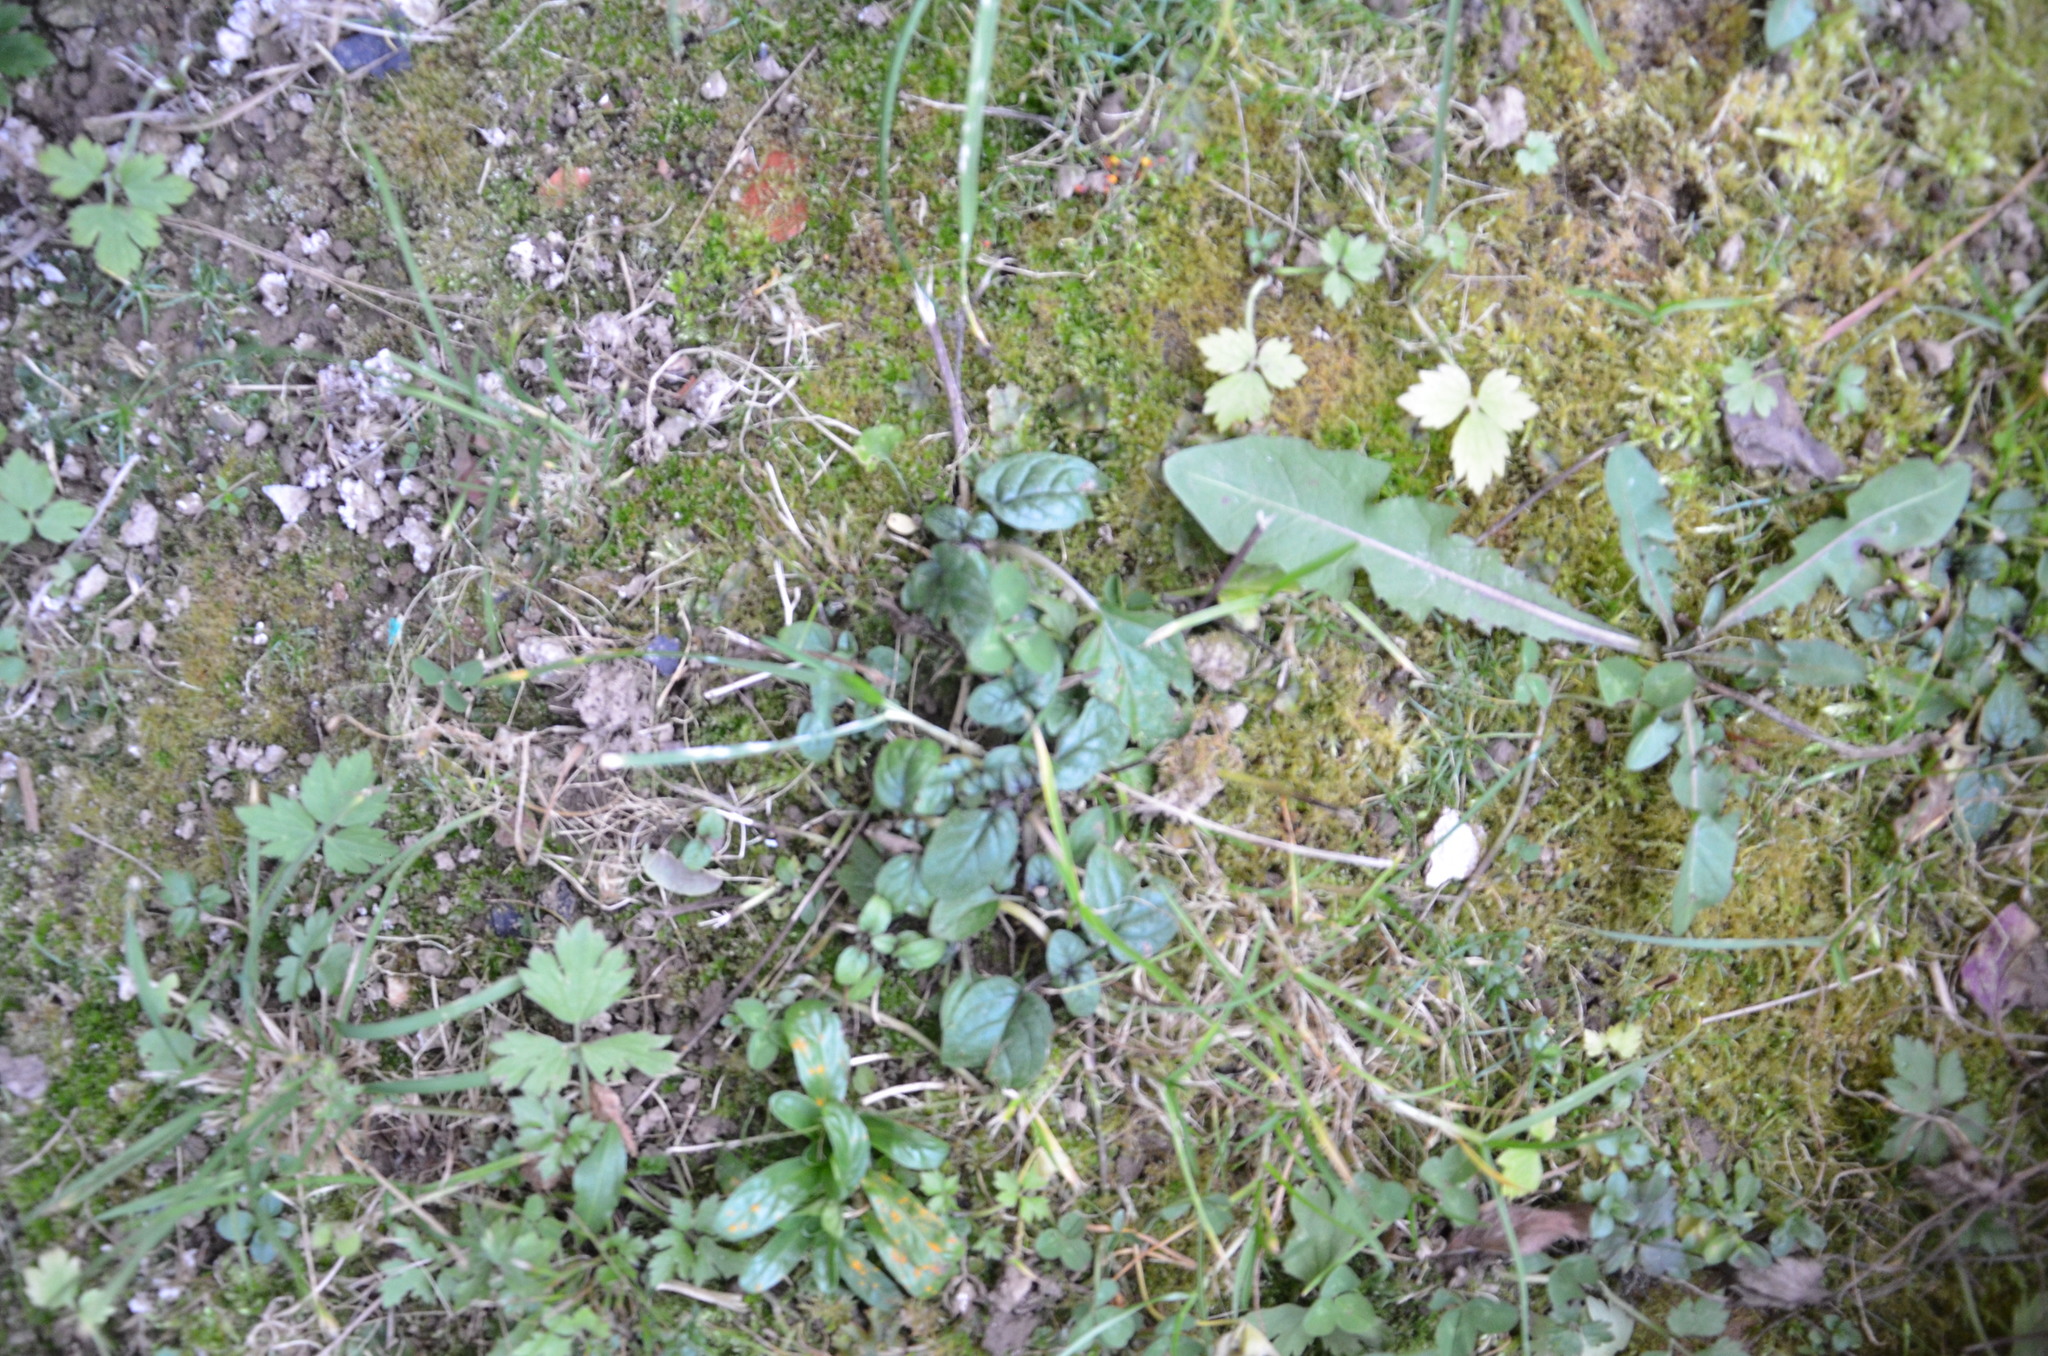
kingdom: Plantae
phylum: Tracheophyta
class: Magnoliopsida
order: Lamiales
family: Lamiaceae
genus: Prunella
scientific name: Prunella vulgaris
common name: Heal-all
